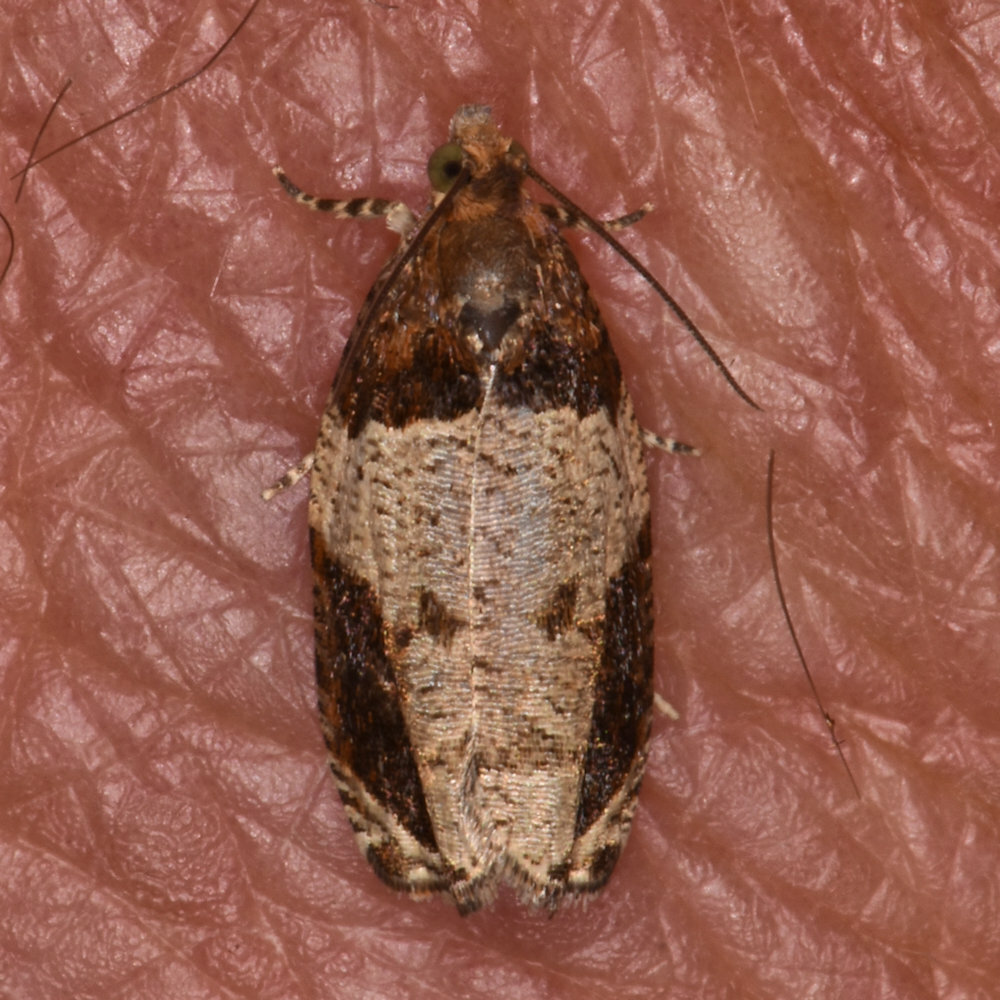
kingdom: Animalia
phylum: Arthropoda
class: Insecta
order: Lepidoptera
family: Tortricidae
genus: Olethreutes
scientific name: Olethreutes ferriferana
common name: Hydrangea leaftier moth
